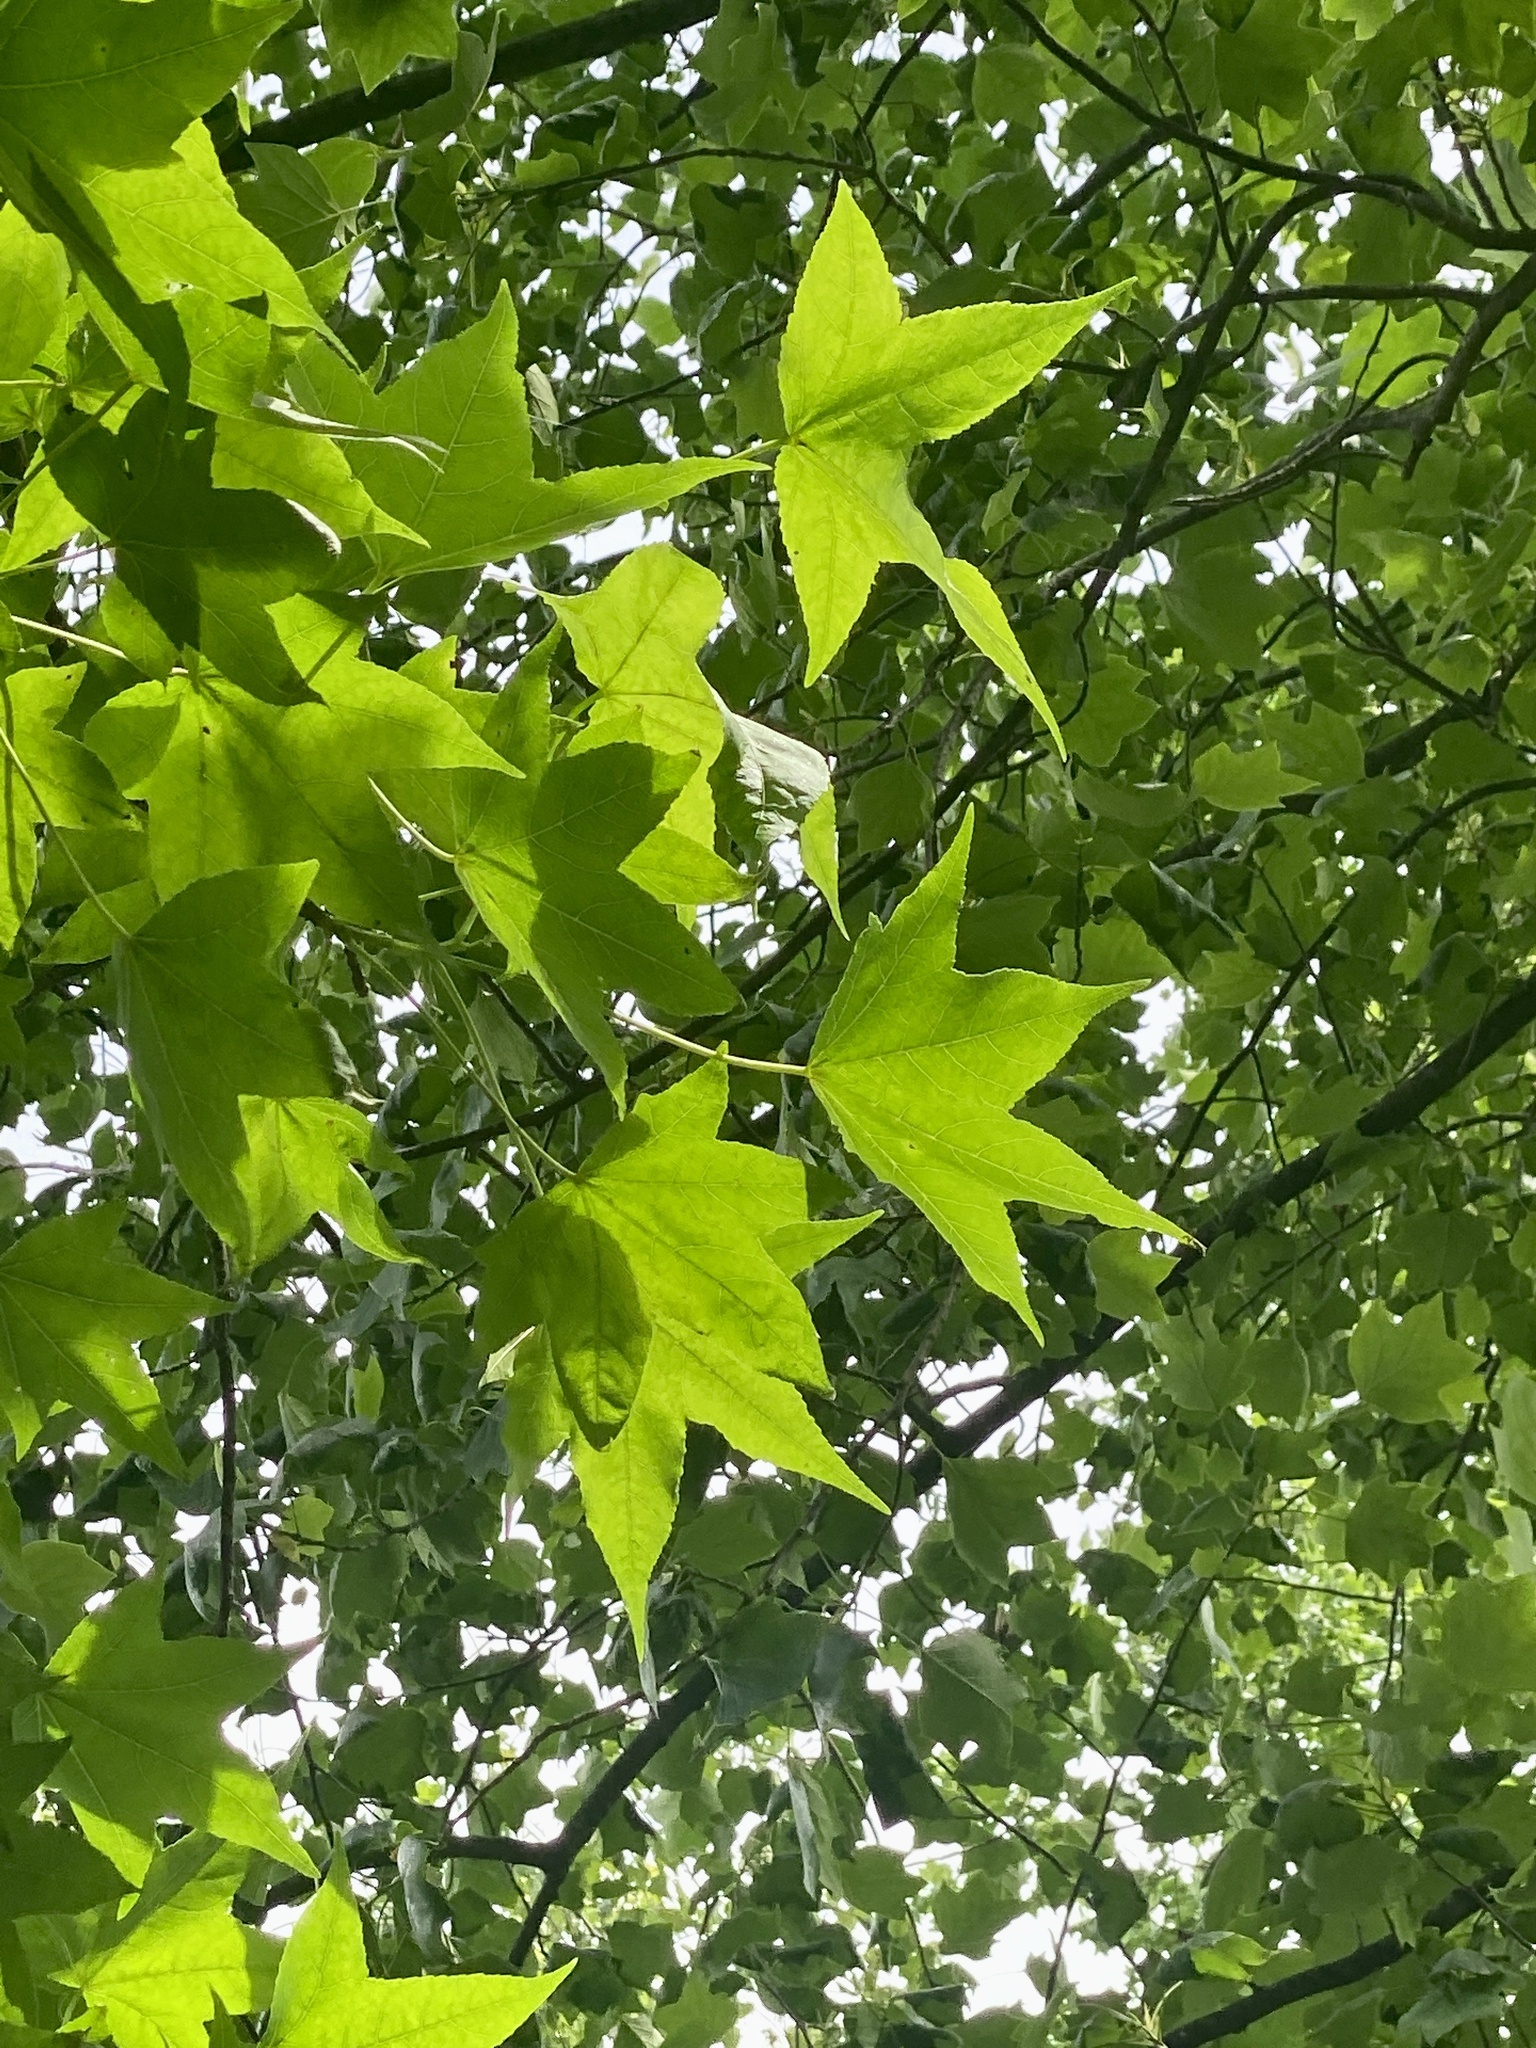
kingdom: Plantae
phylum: Tracheophyta
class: Magnoliopsida
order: Saxifragales
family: Altingiaceae
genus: Liquidambar
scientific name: Liquidambar styraciflua
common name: Sweet gum
